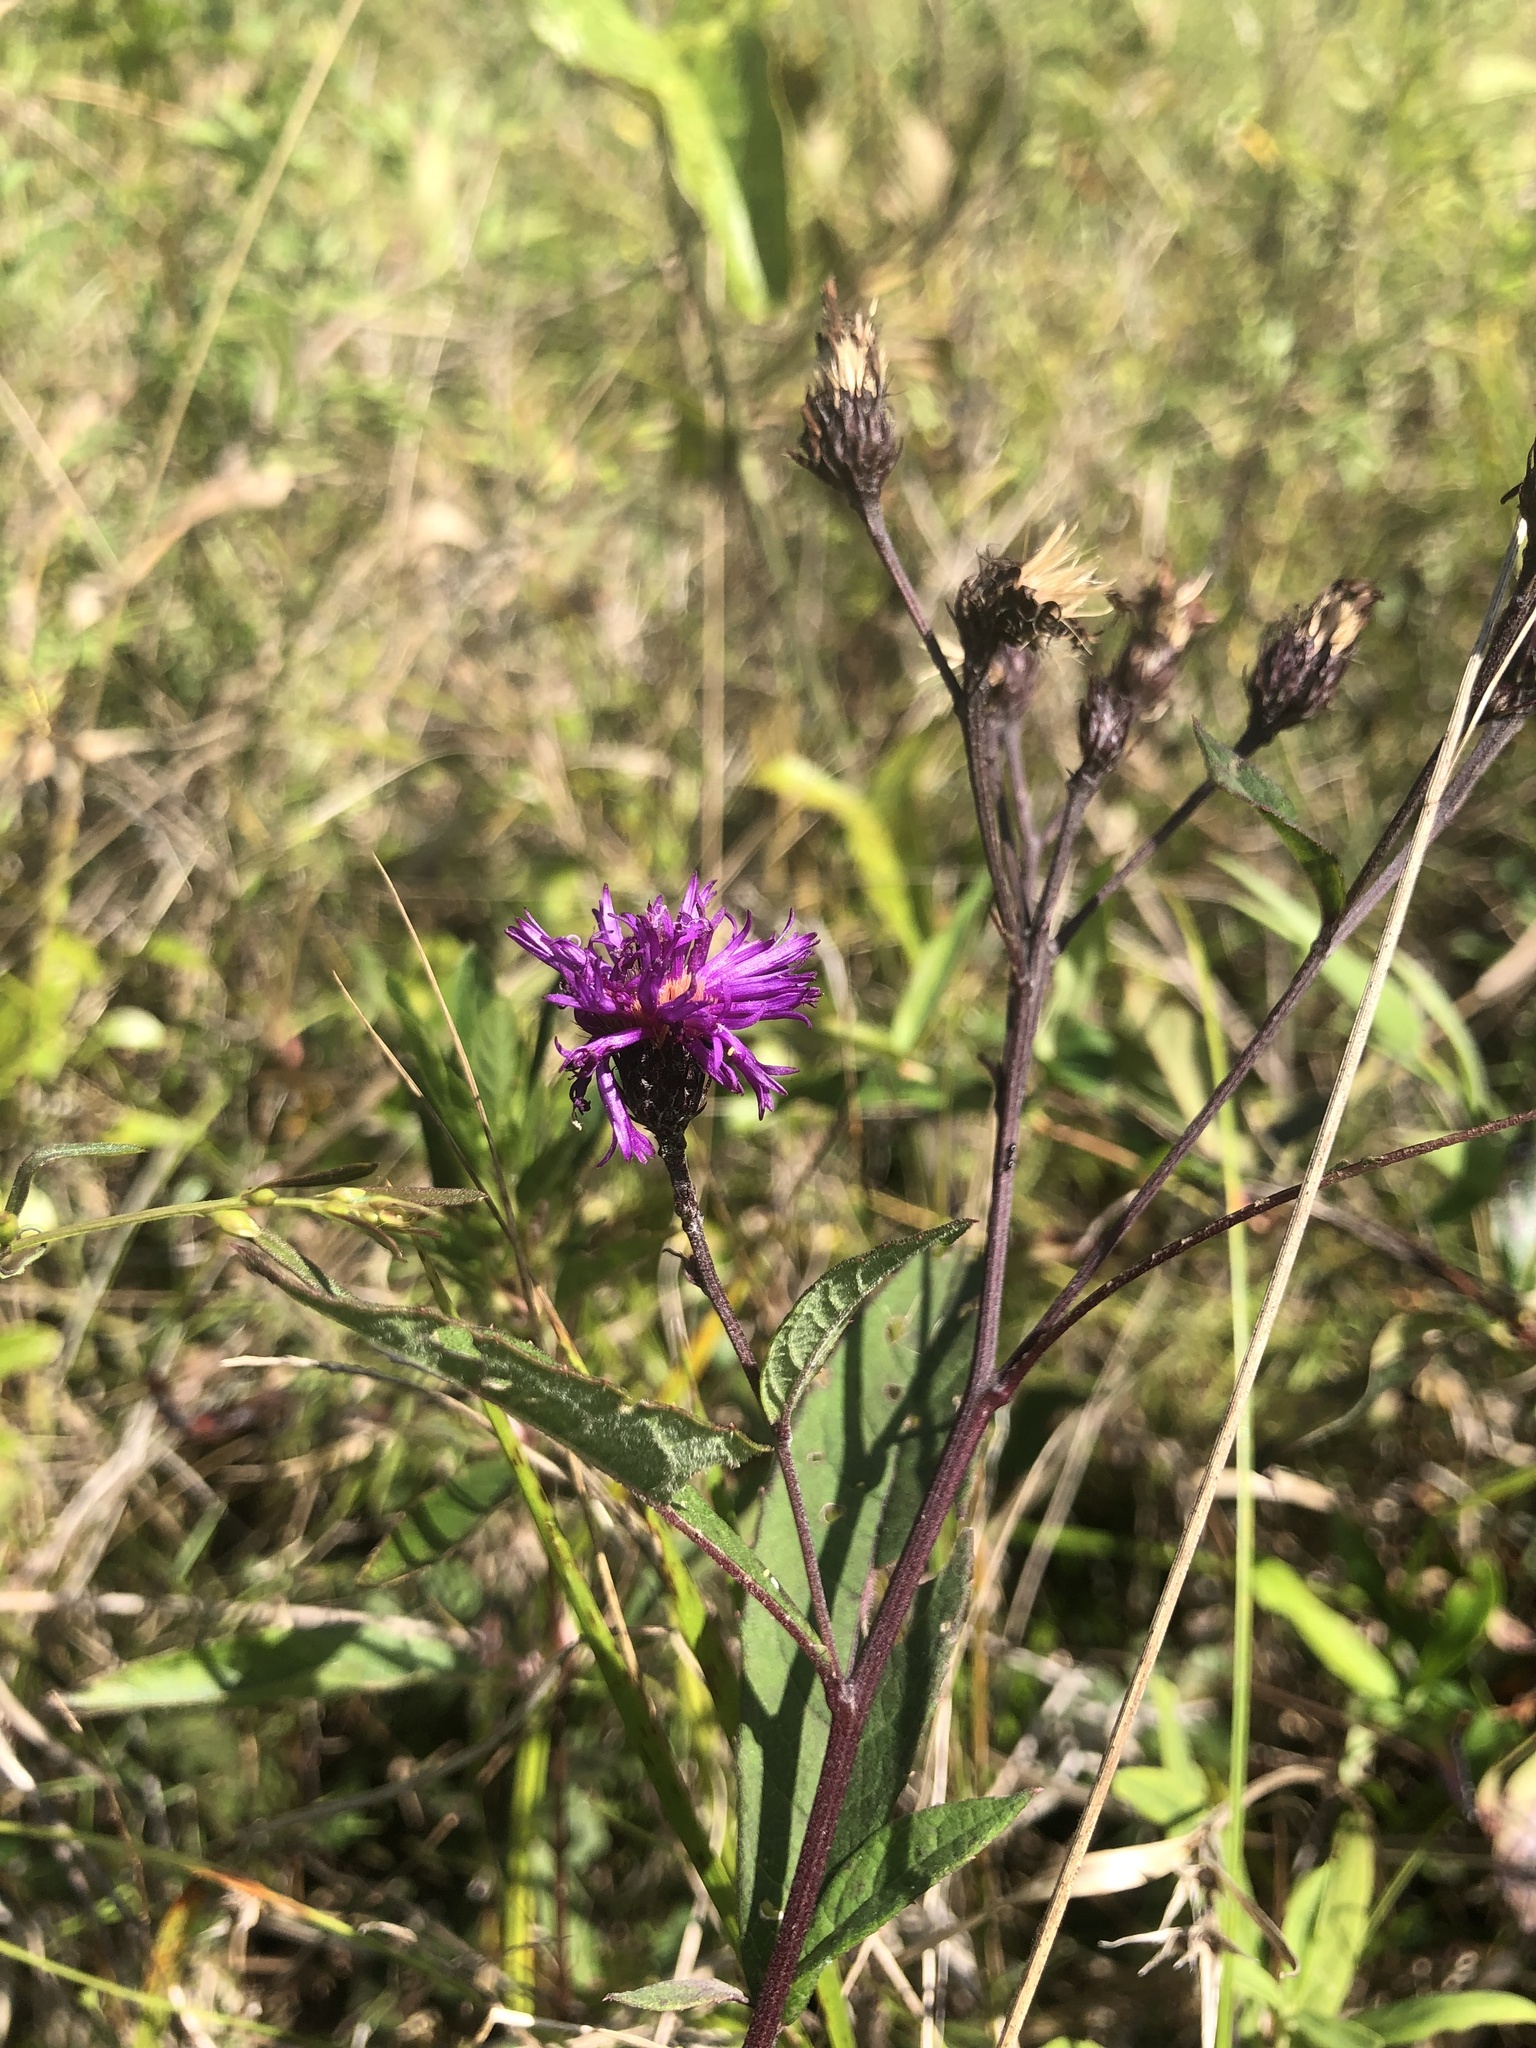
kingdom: Plantae
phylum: Tracheophyta
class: Magnoliopsida
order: Asterales
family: Asteraceae
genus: Vernonia
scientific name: Vernonia glauca
